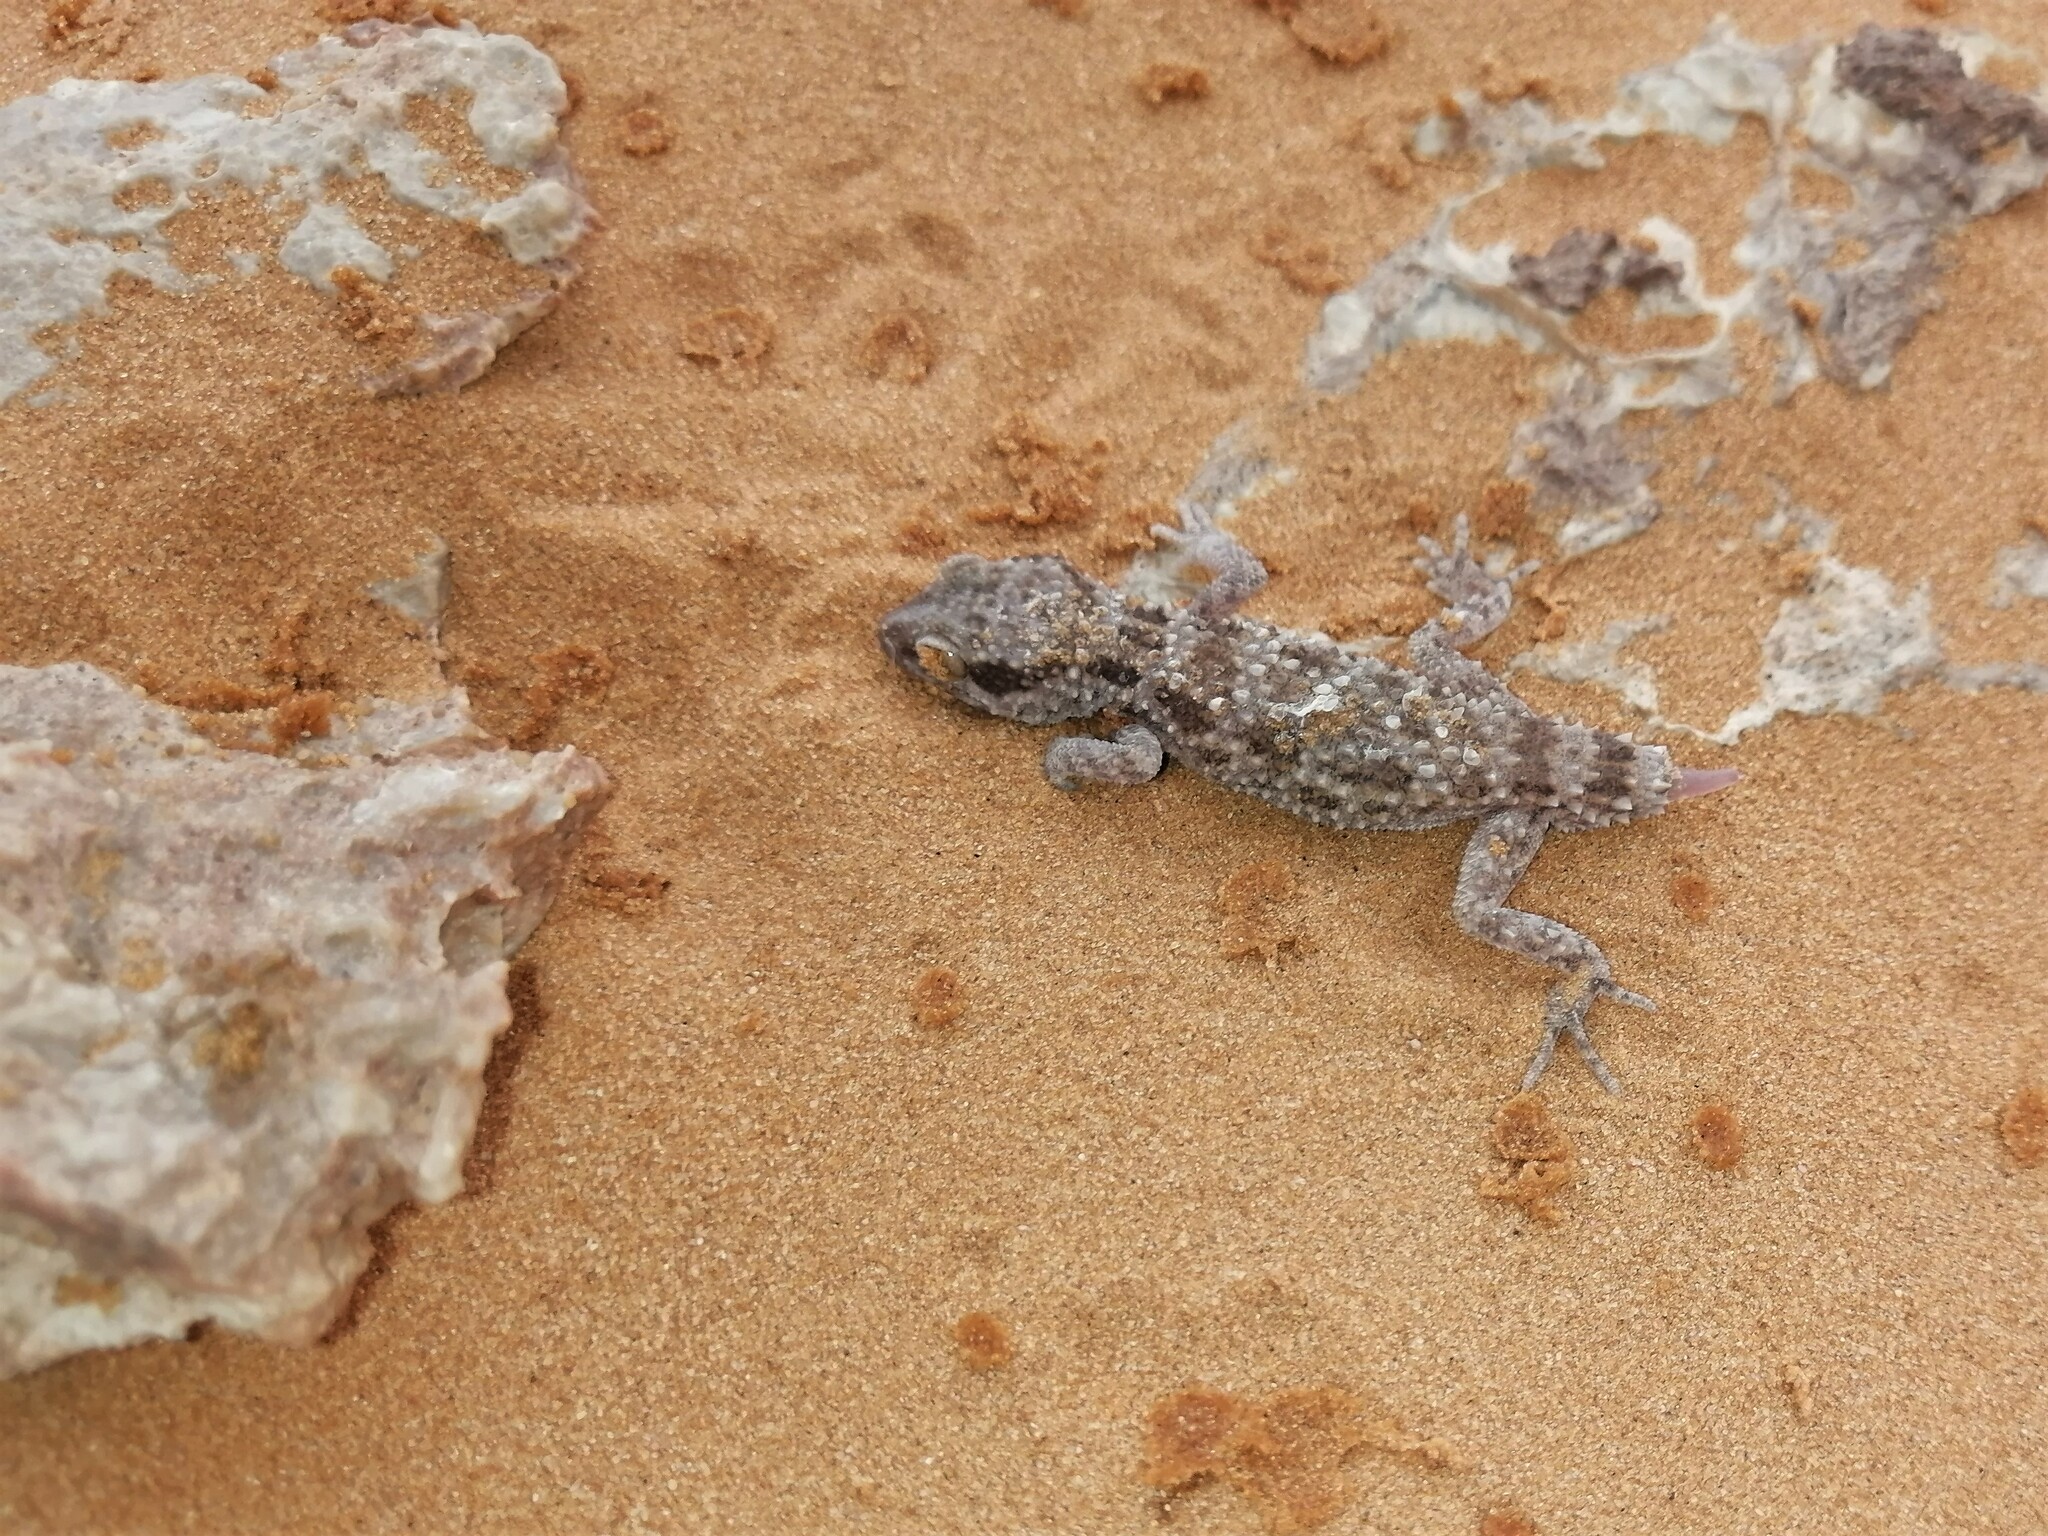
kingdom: Animalia
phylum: Chordata
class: Squamata
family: Gekkonidae
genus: Bunopus
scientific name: Bunopus tuberculatus
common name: Southern tuberculated gecko
